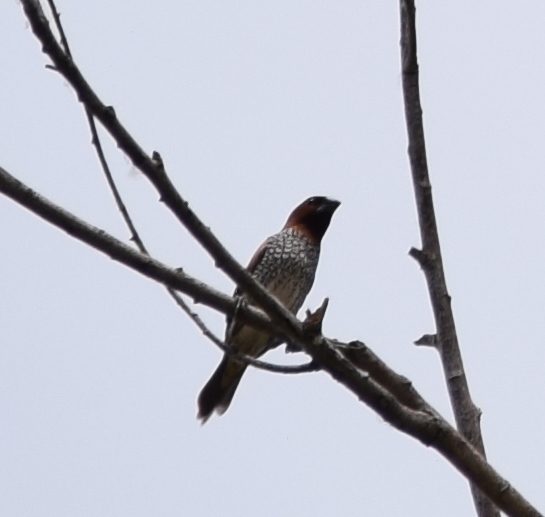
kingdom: Animalia
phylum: Chordata
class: Aves
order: Passeriformes
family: Estrildidae
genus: Lonchura
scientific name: Lonchura punctulata
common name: Scaly-breasted munia
